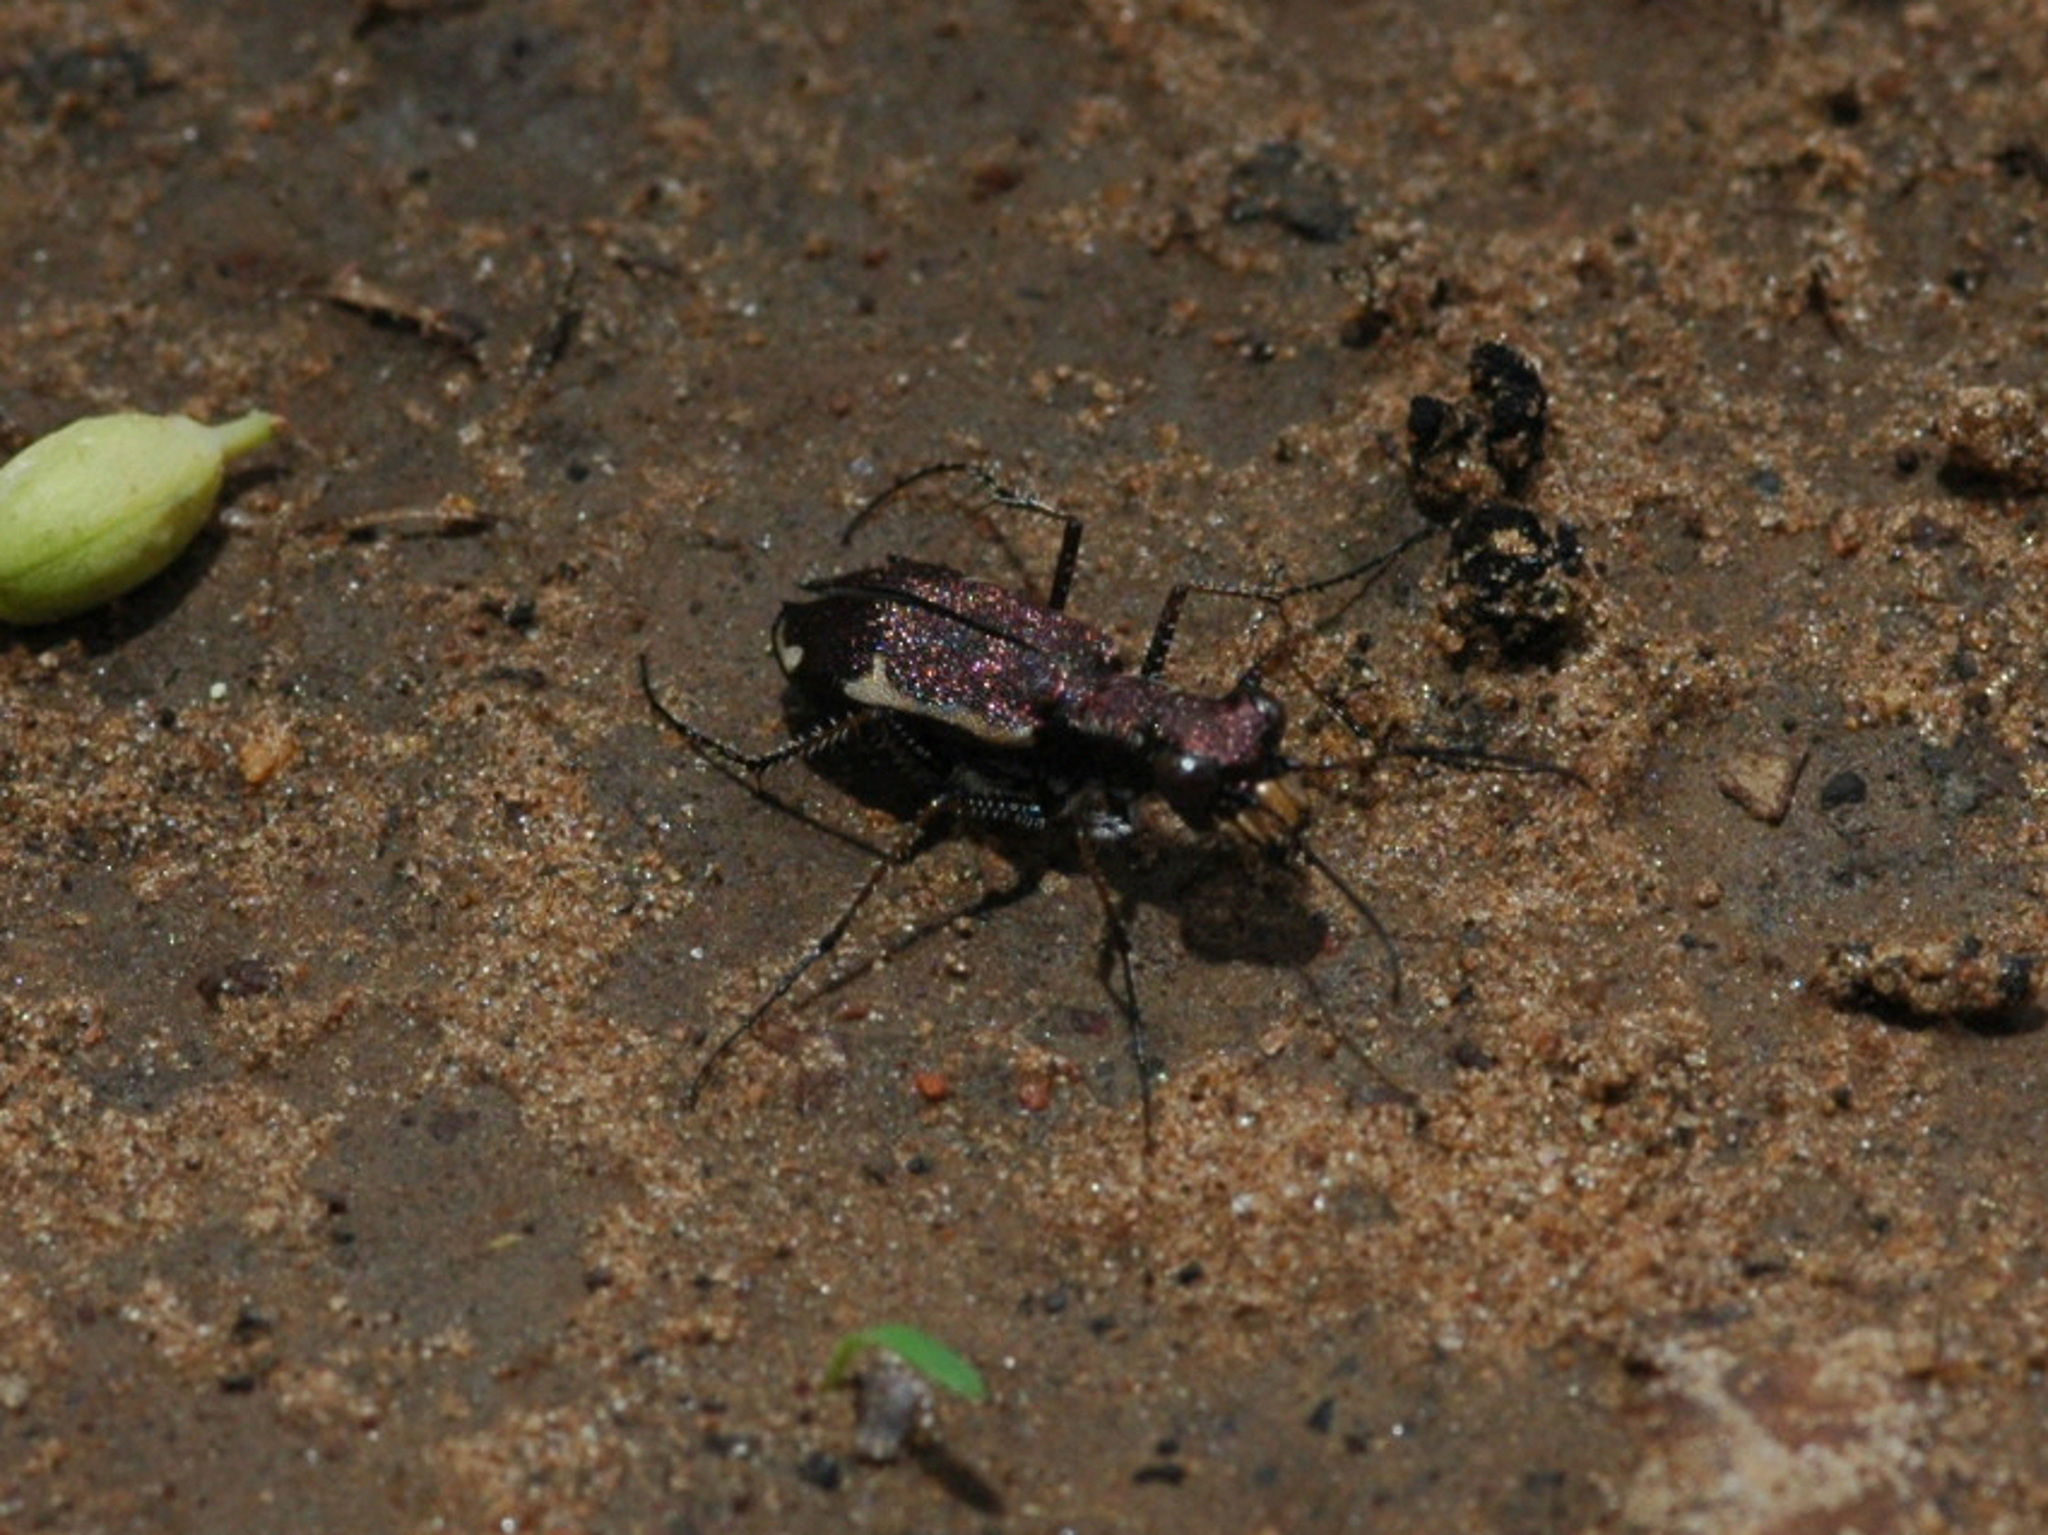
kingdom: Animalia
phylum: Arthropoda
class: Insecta
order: Coleoptera
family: Carabidae
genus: Bennigsenium
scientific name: Bennigsenium hauseranum
